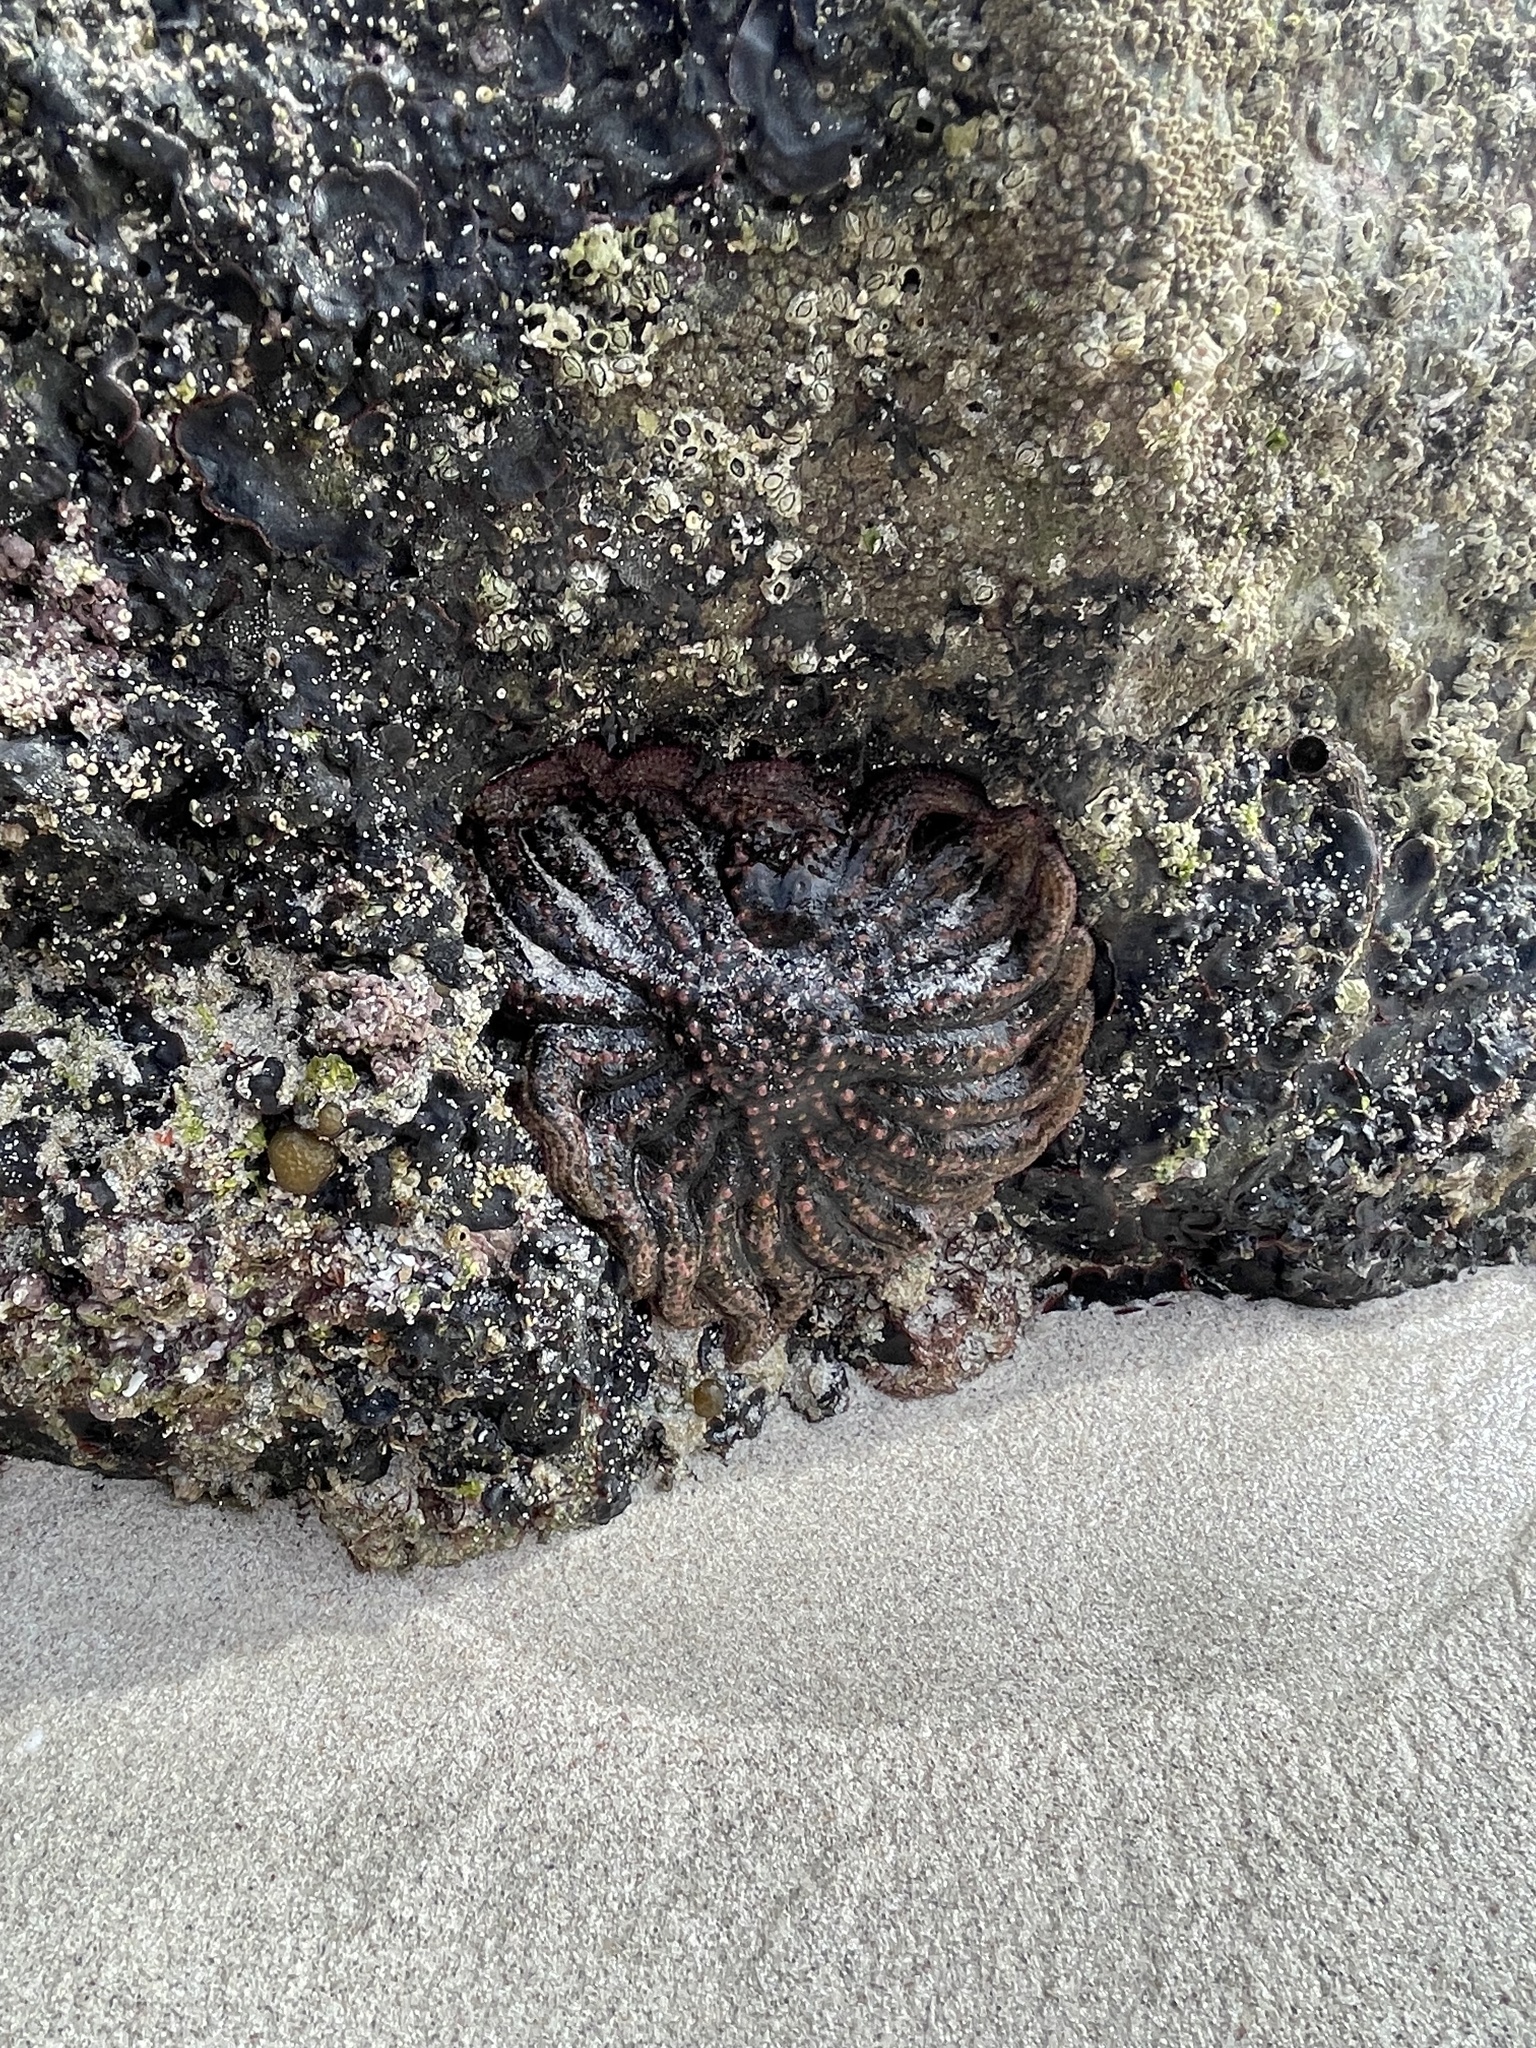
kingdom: Animalia
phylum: Echinodermata
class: Asteroidea
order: Forcipulatida
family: Heliasteridae
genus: Heliaster
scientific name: Heliaster kubiniji
